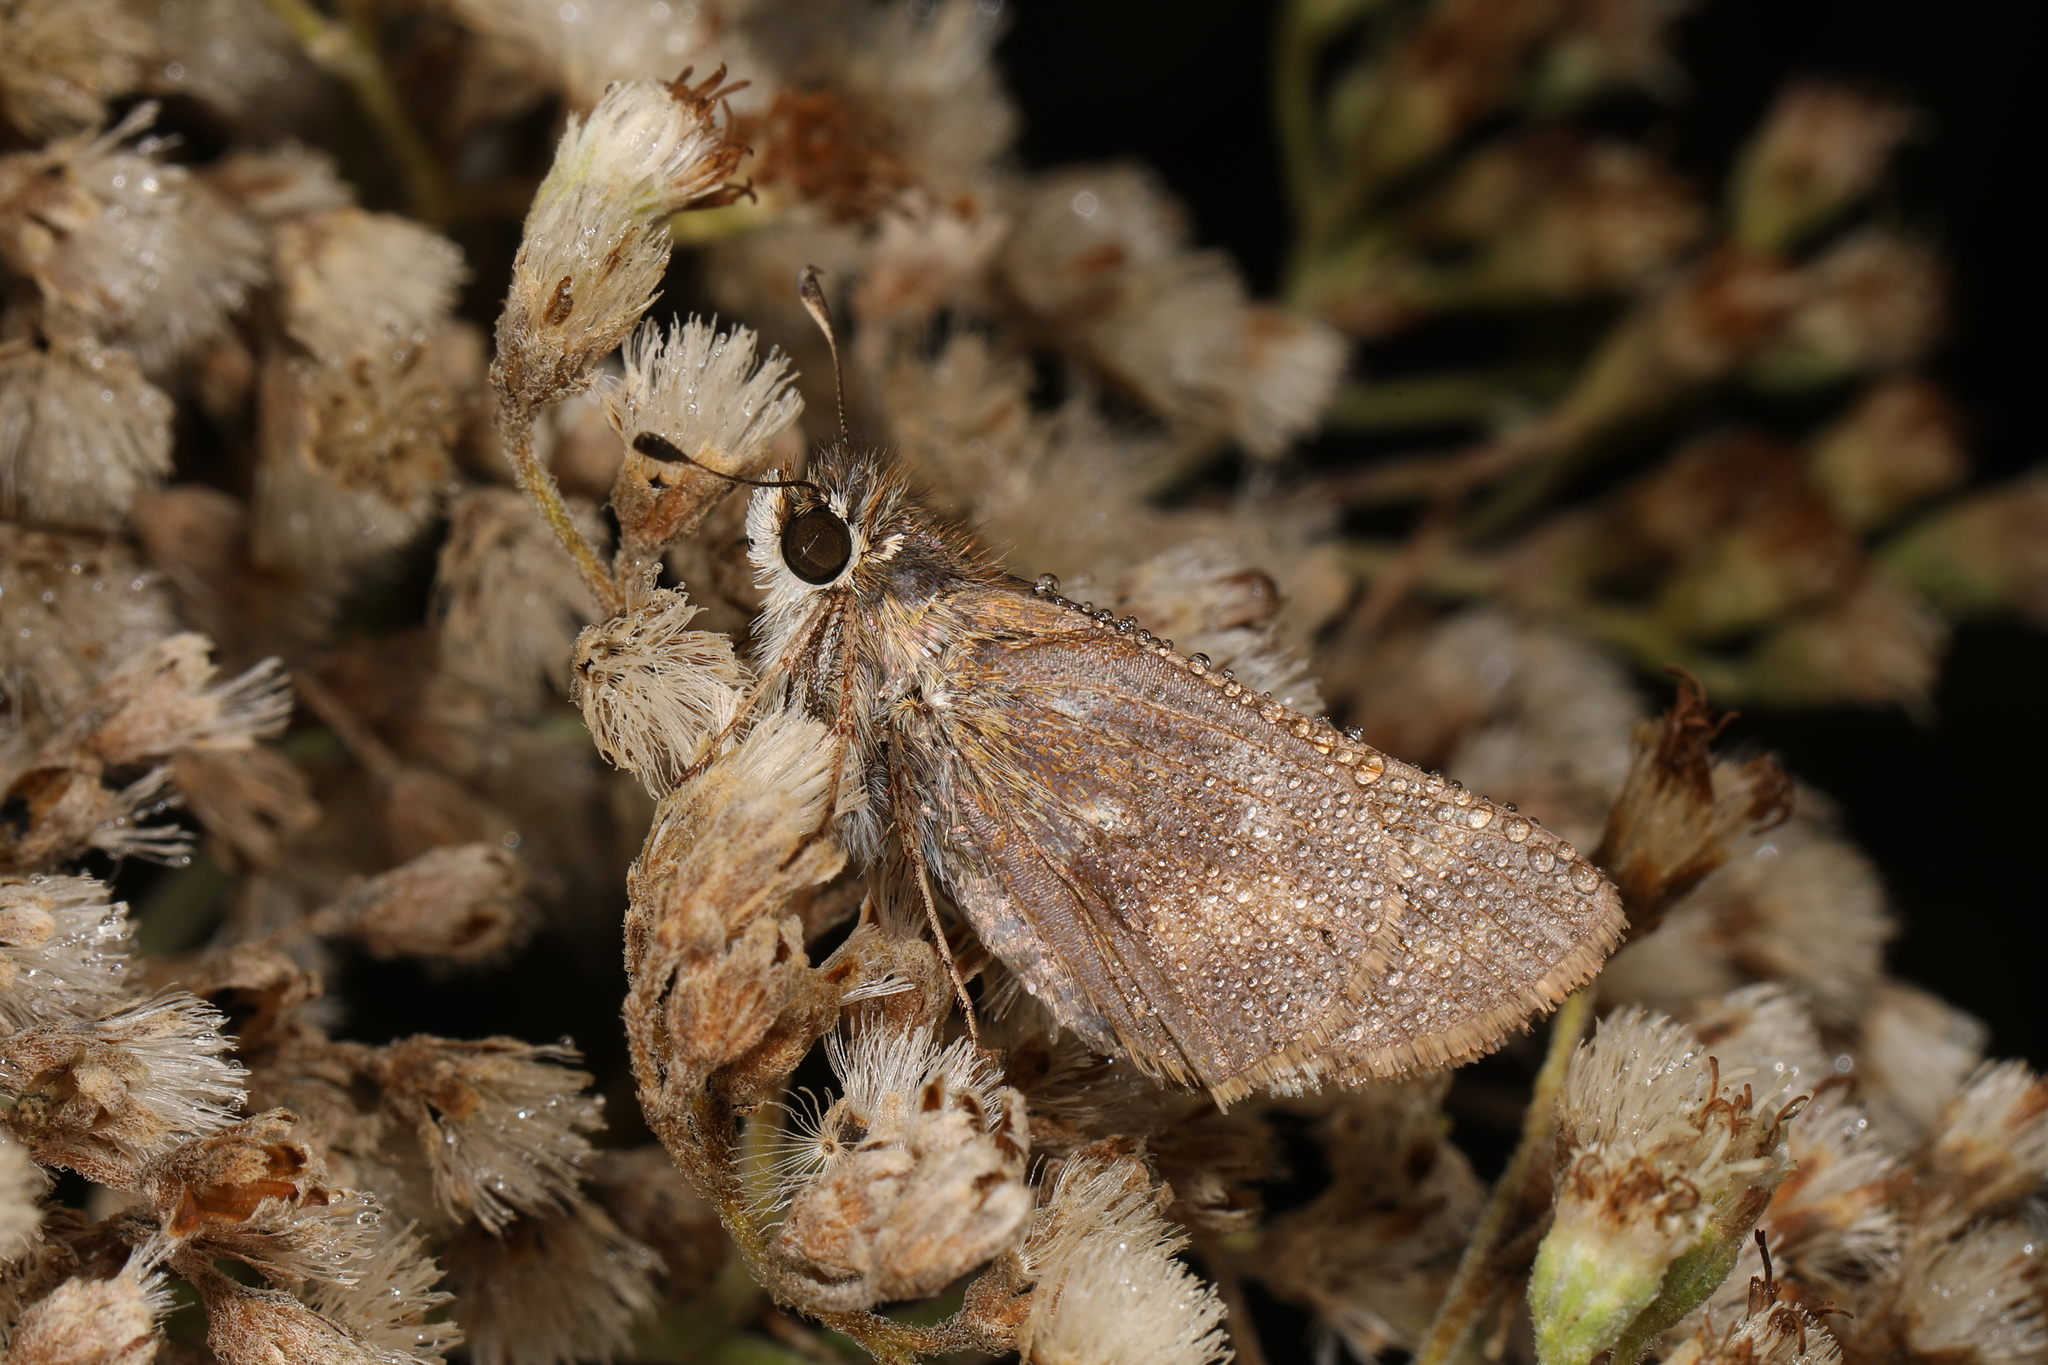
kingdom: Animalia
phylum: Arthropoda
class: Insecta
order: Lepidoptera
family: Hesperiidae
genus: Atalopedes
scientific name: Atalopedes
